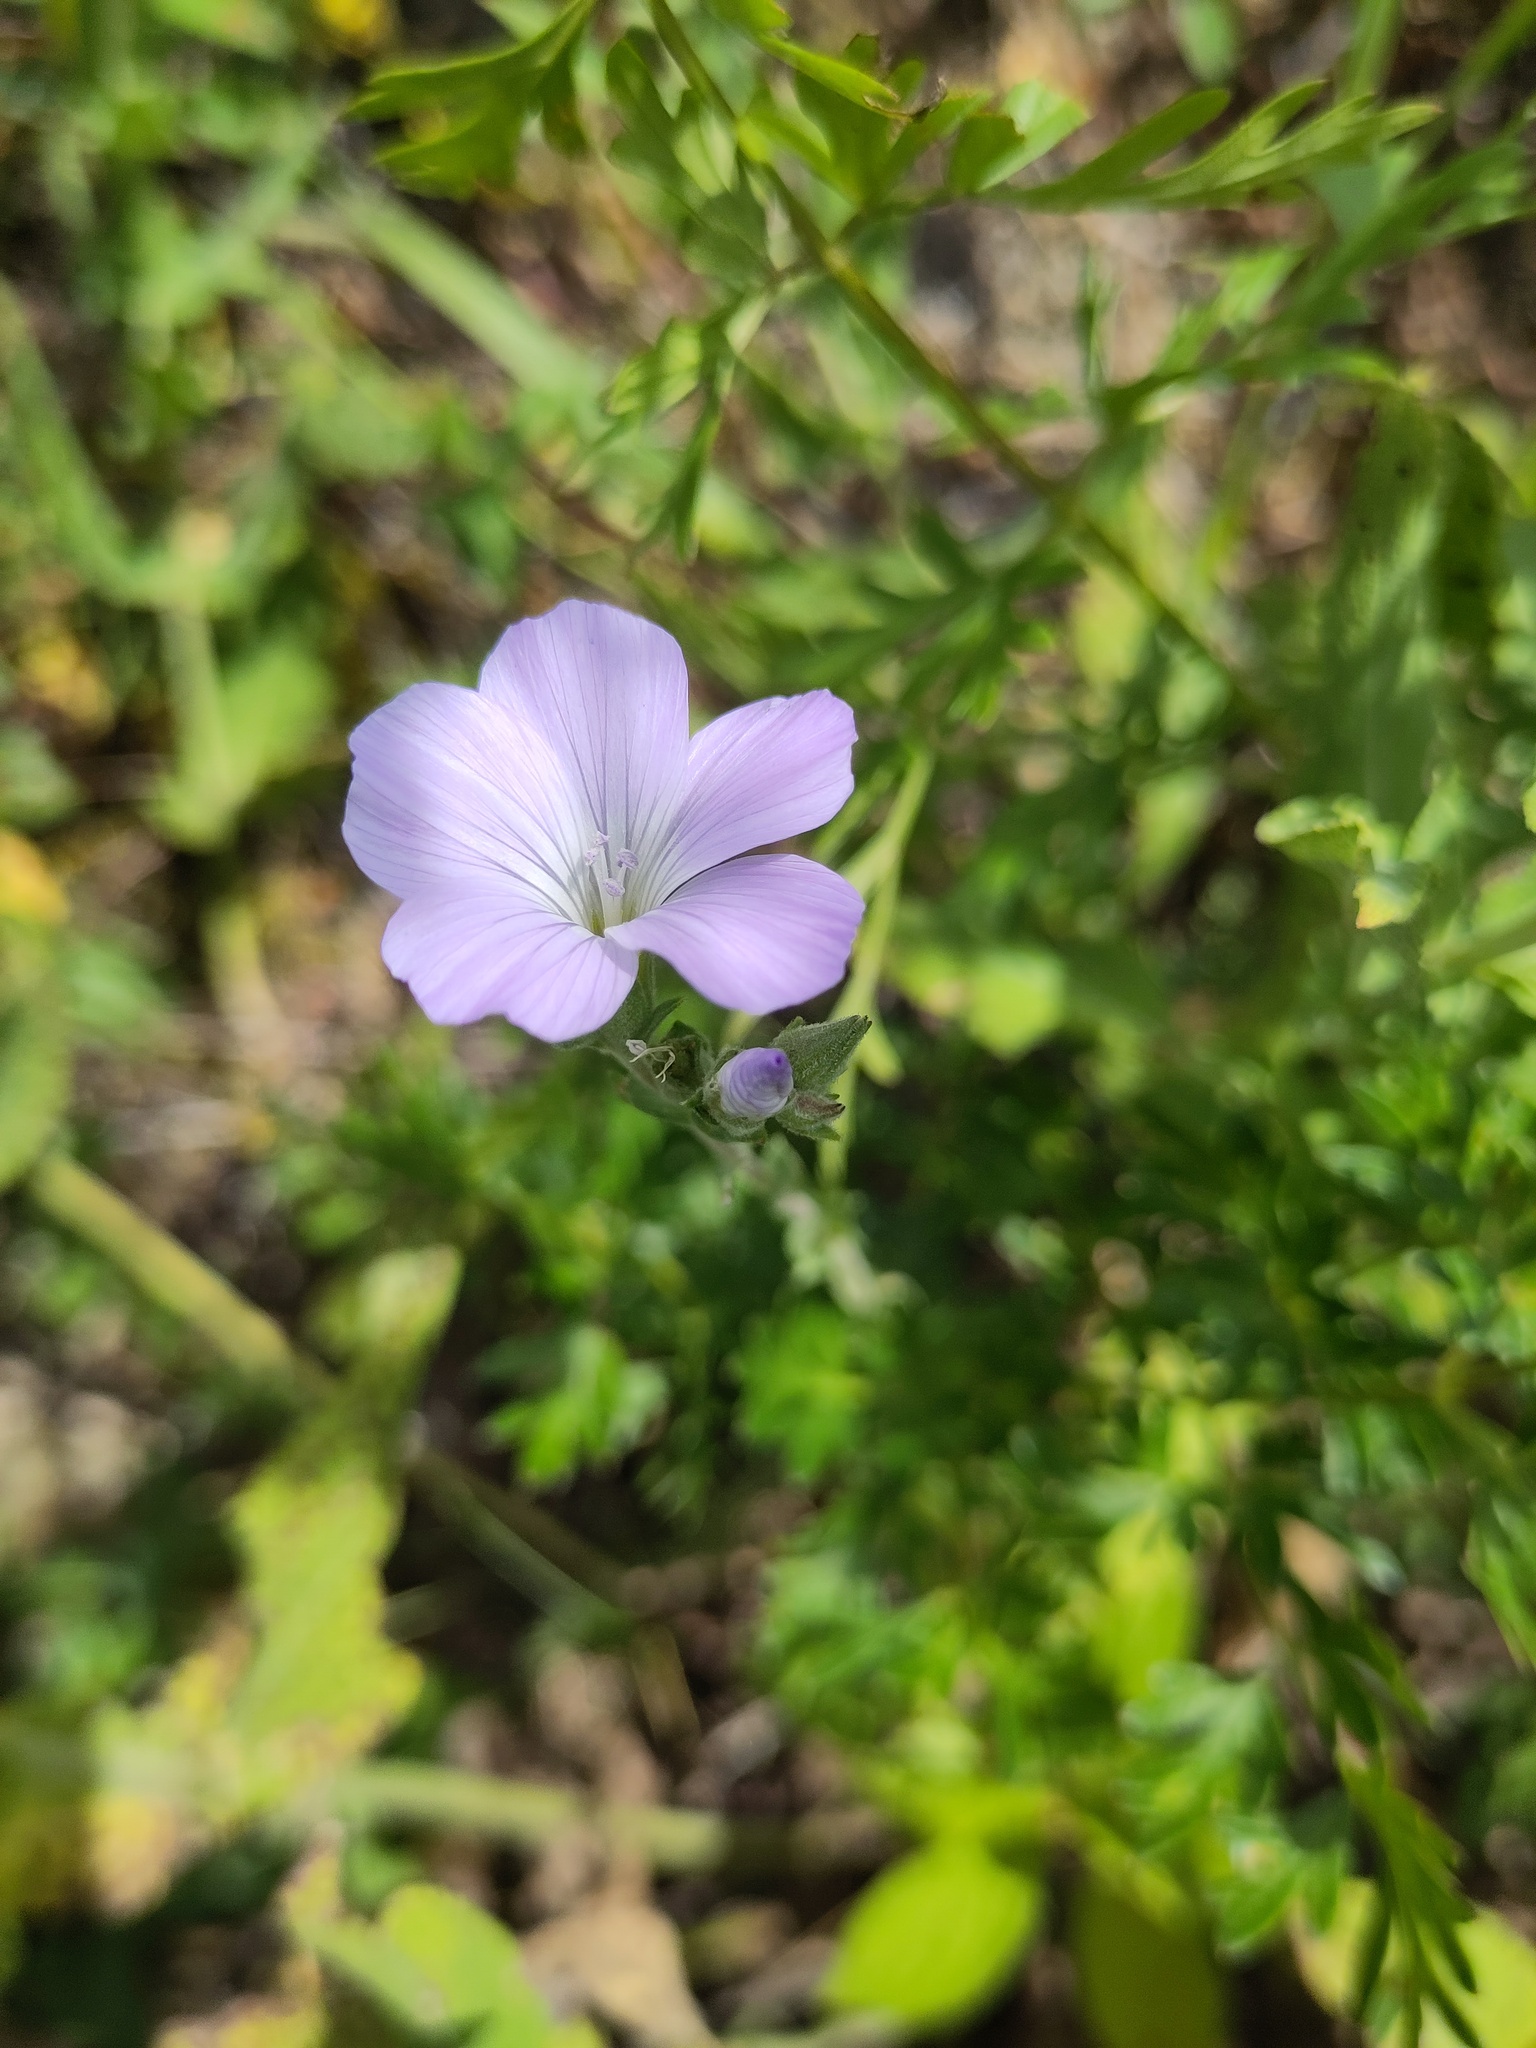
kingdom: Plantae
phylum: Tracheophyta
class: Magnoliopsida
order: Malpighiales
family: Linaceae
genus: Linum
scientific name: Linum hirsutum
